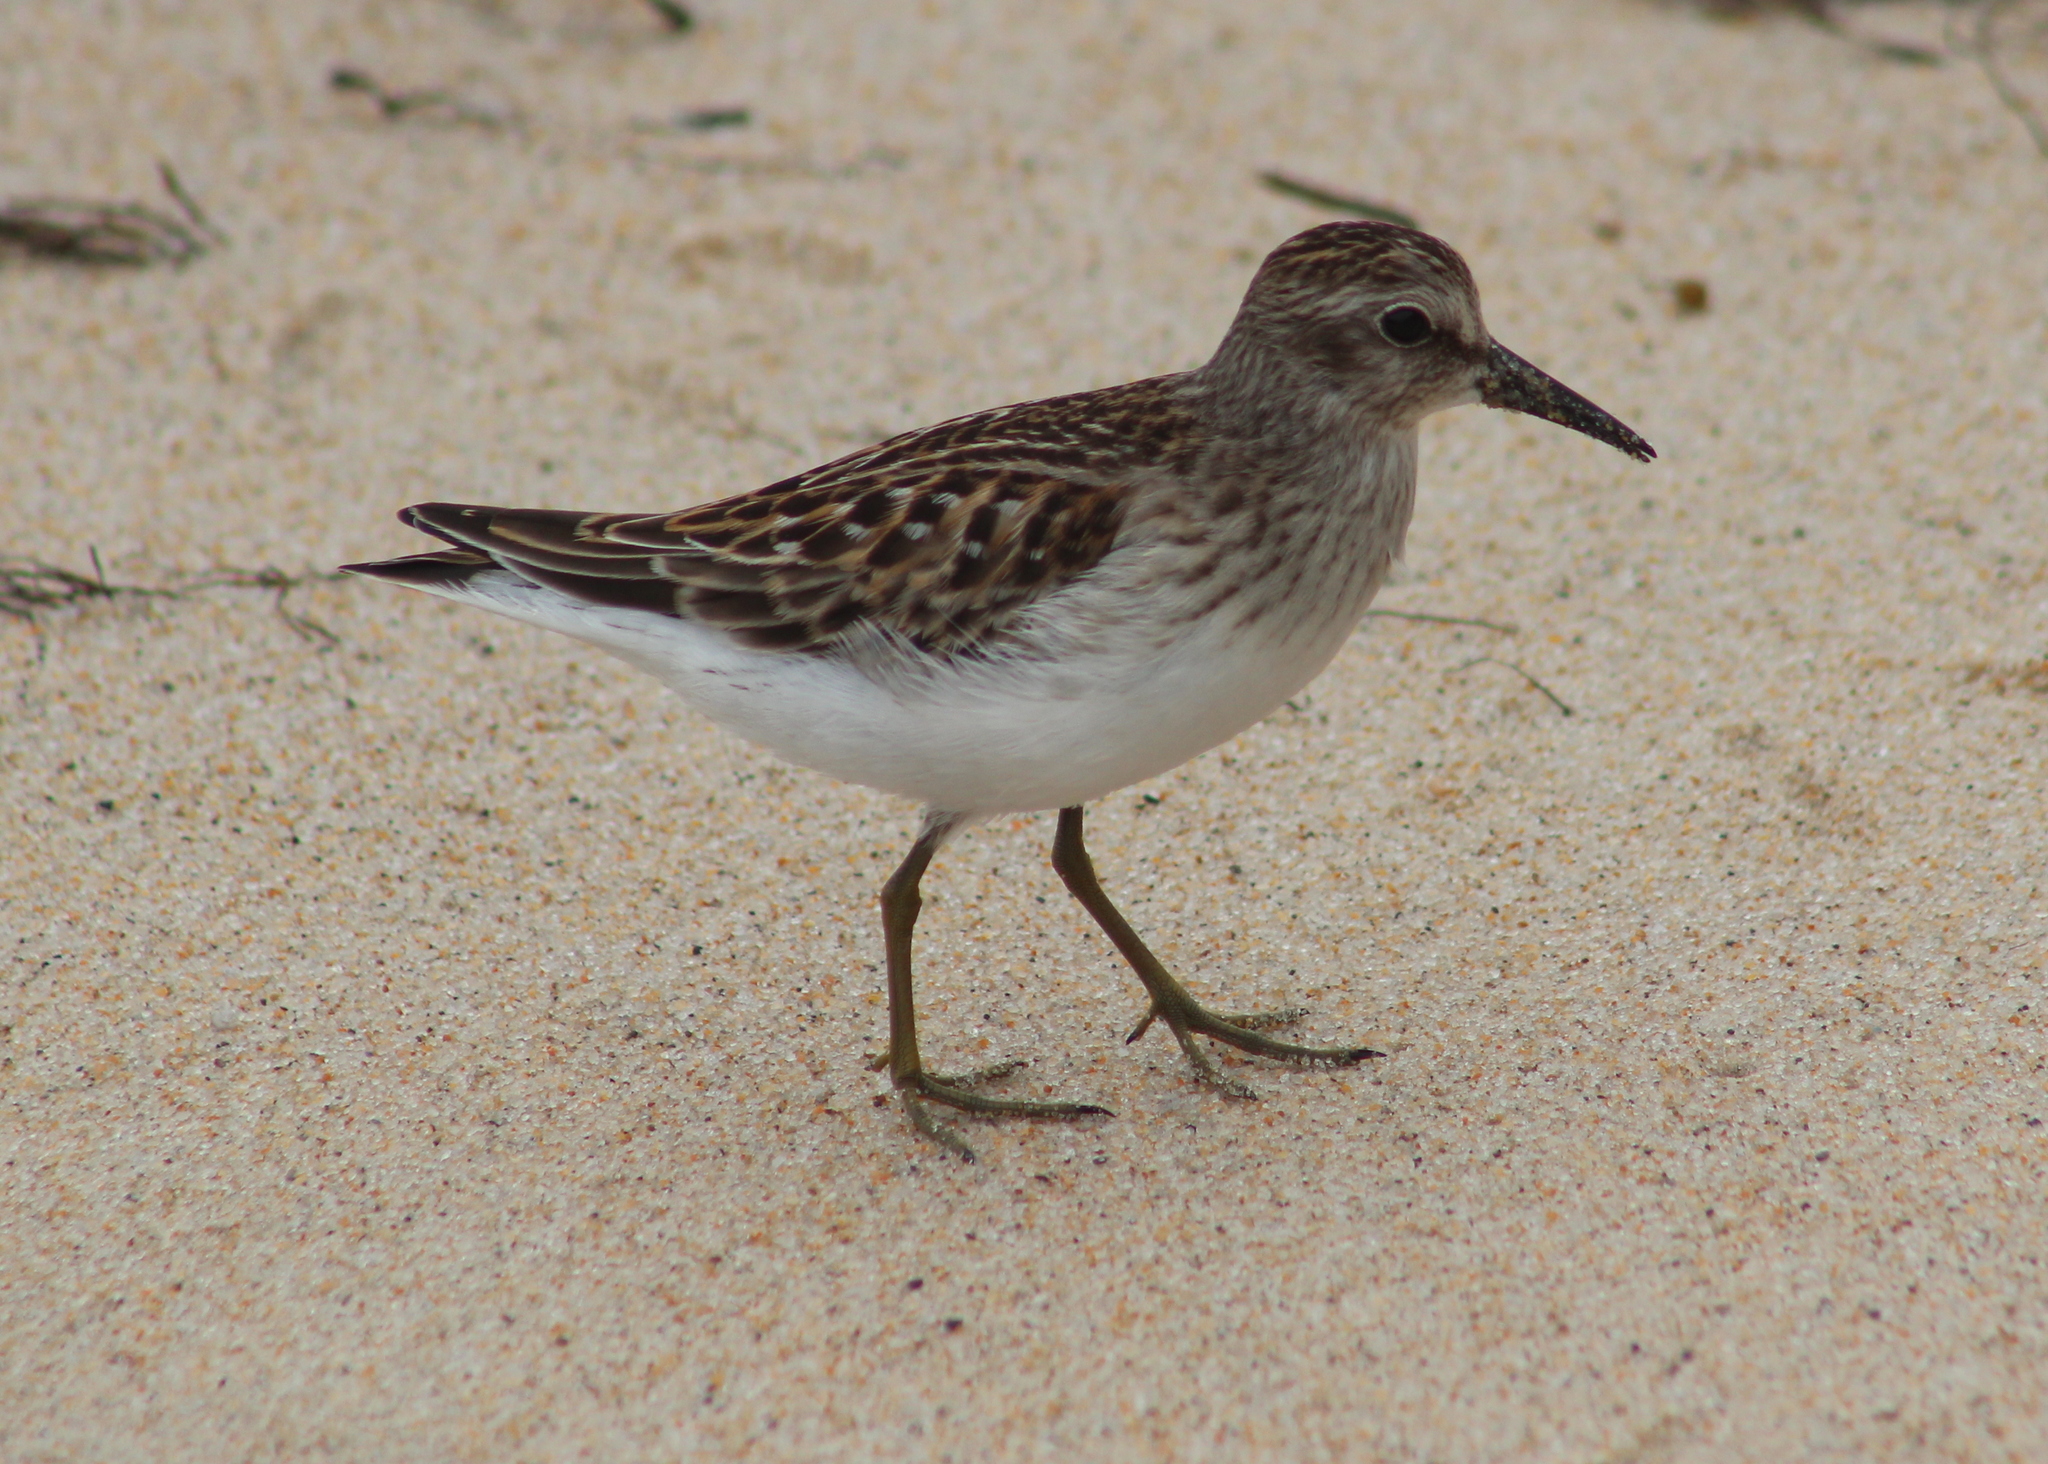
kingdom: Animalia
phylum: Chordata
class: Aves
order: Charadriiformes
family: Scolopacidae
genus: Calidris
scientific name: Calidris minutilla
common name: Least sandpiper
